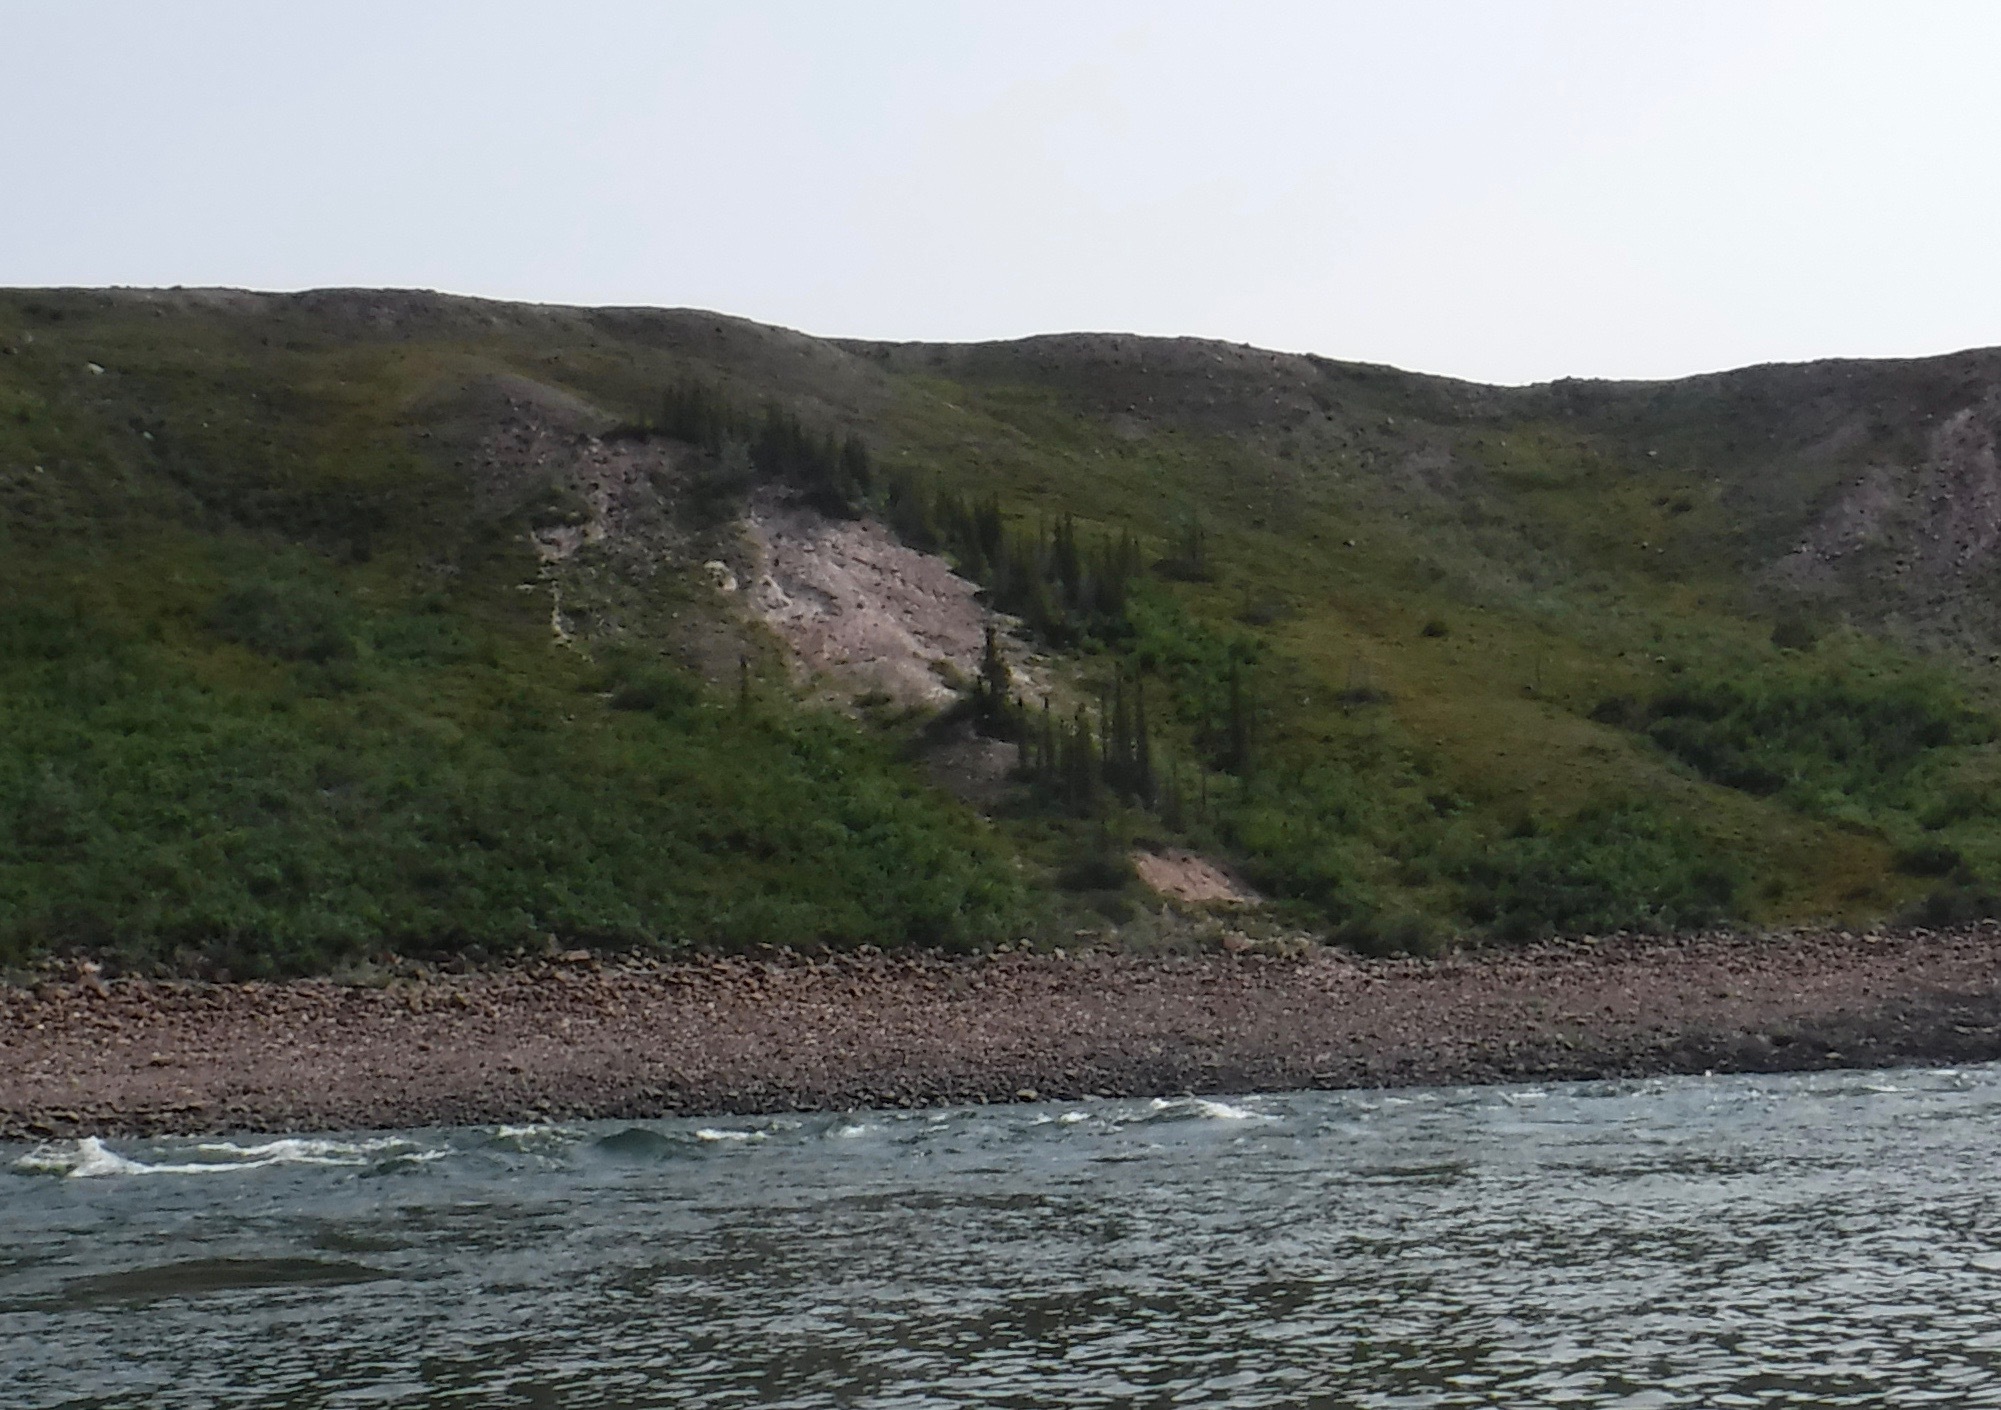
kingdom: Plantae
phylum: Tracheophyta
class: Pinopsida
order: Pinales
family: Pinaceae
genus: Picea
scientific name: Picea glauca
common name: White spruce
